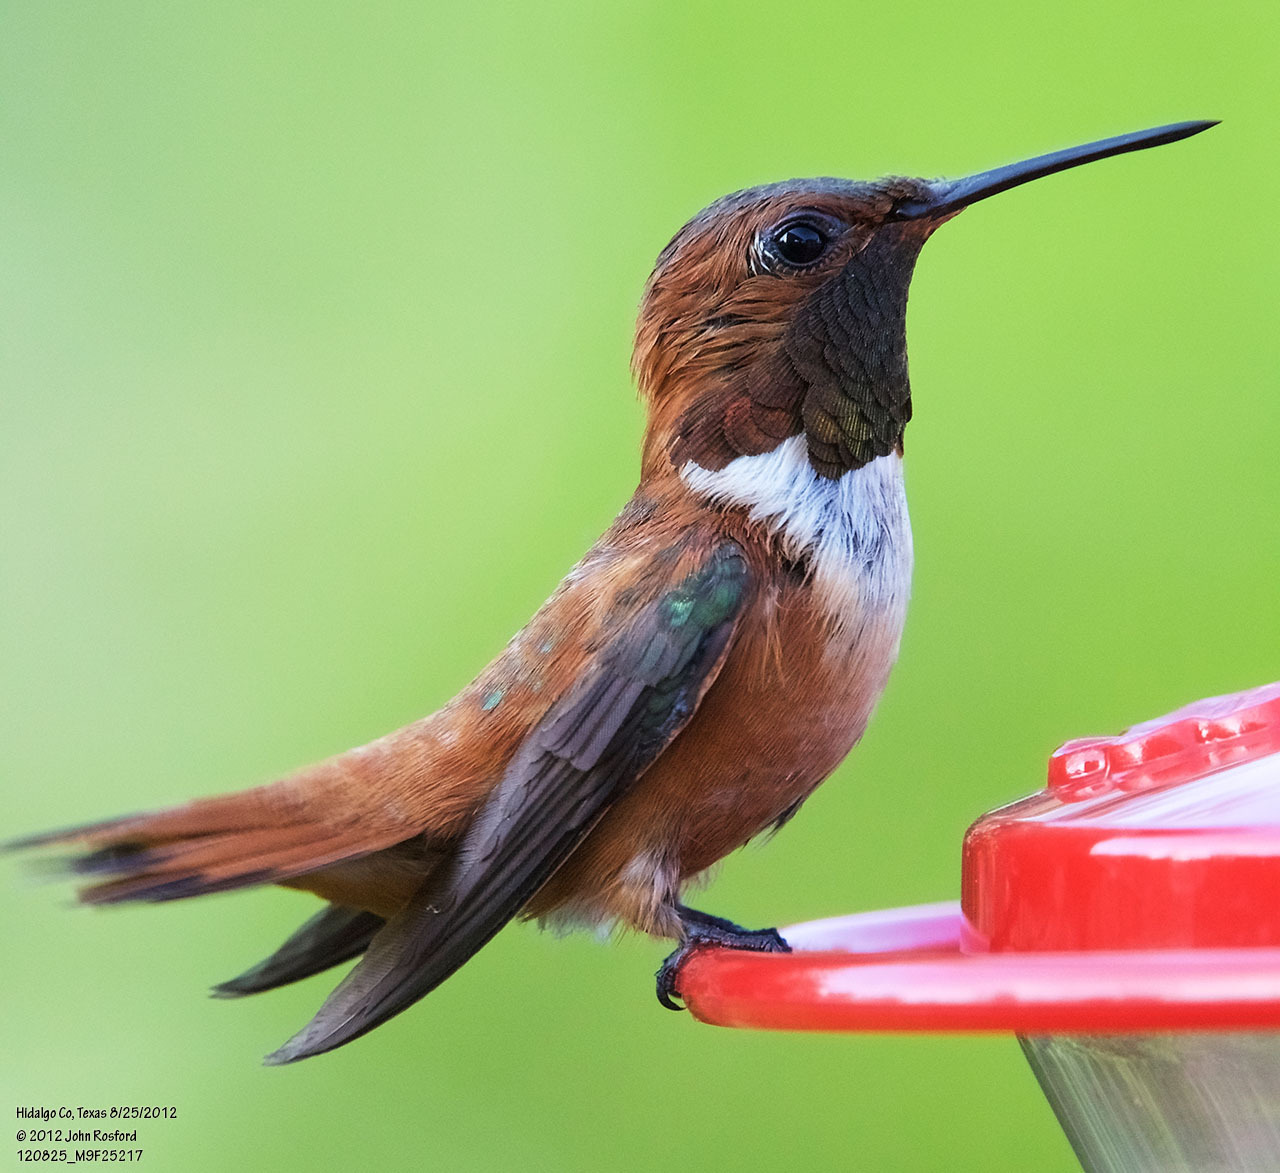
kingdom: Animalia
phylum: Chordata
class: Aves
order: Apodiformes
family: Trochilidae
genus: Selasphorus
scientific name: Selasphorus rufus
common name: Rufous hummingbird
